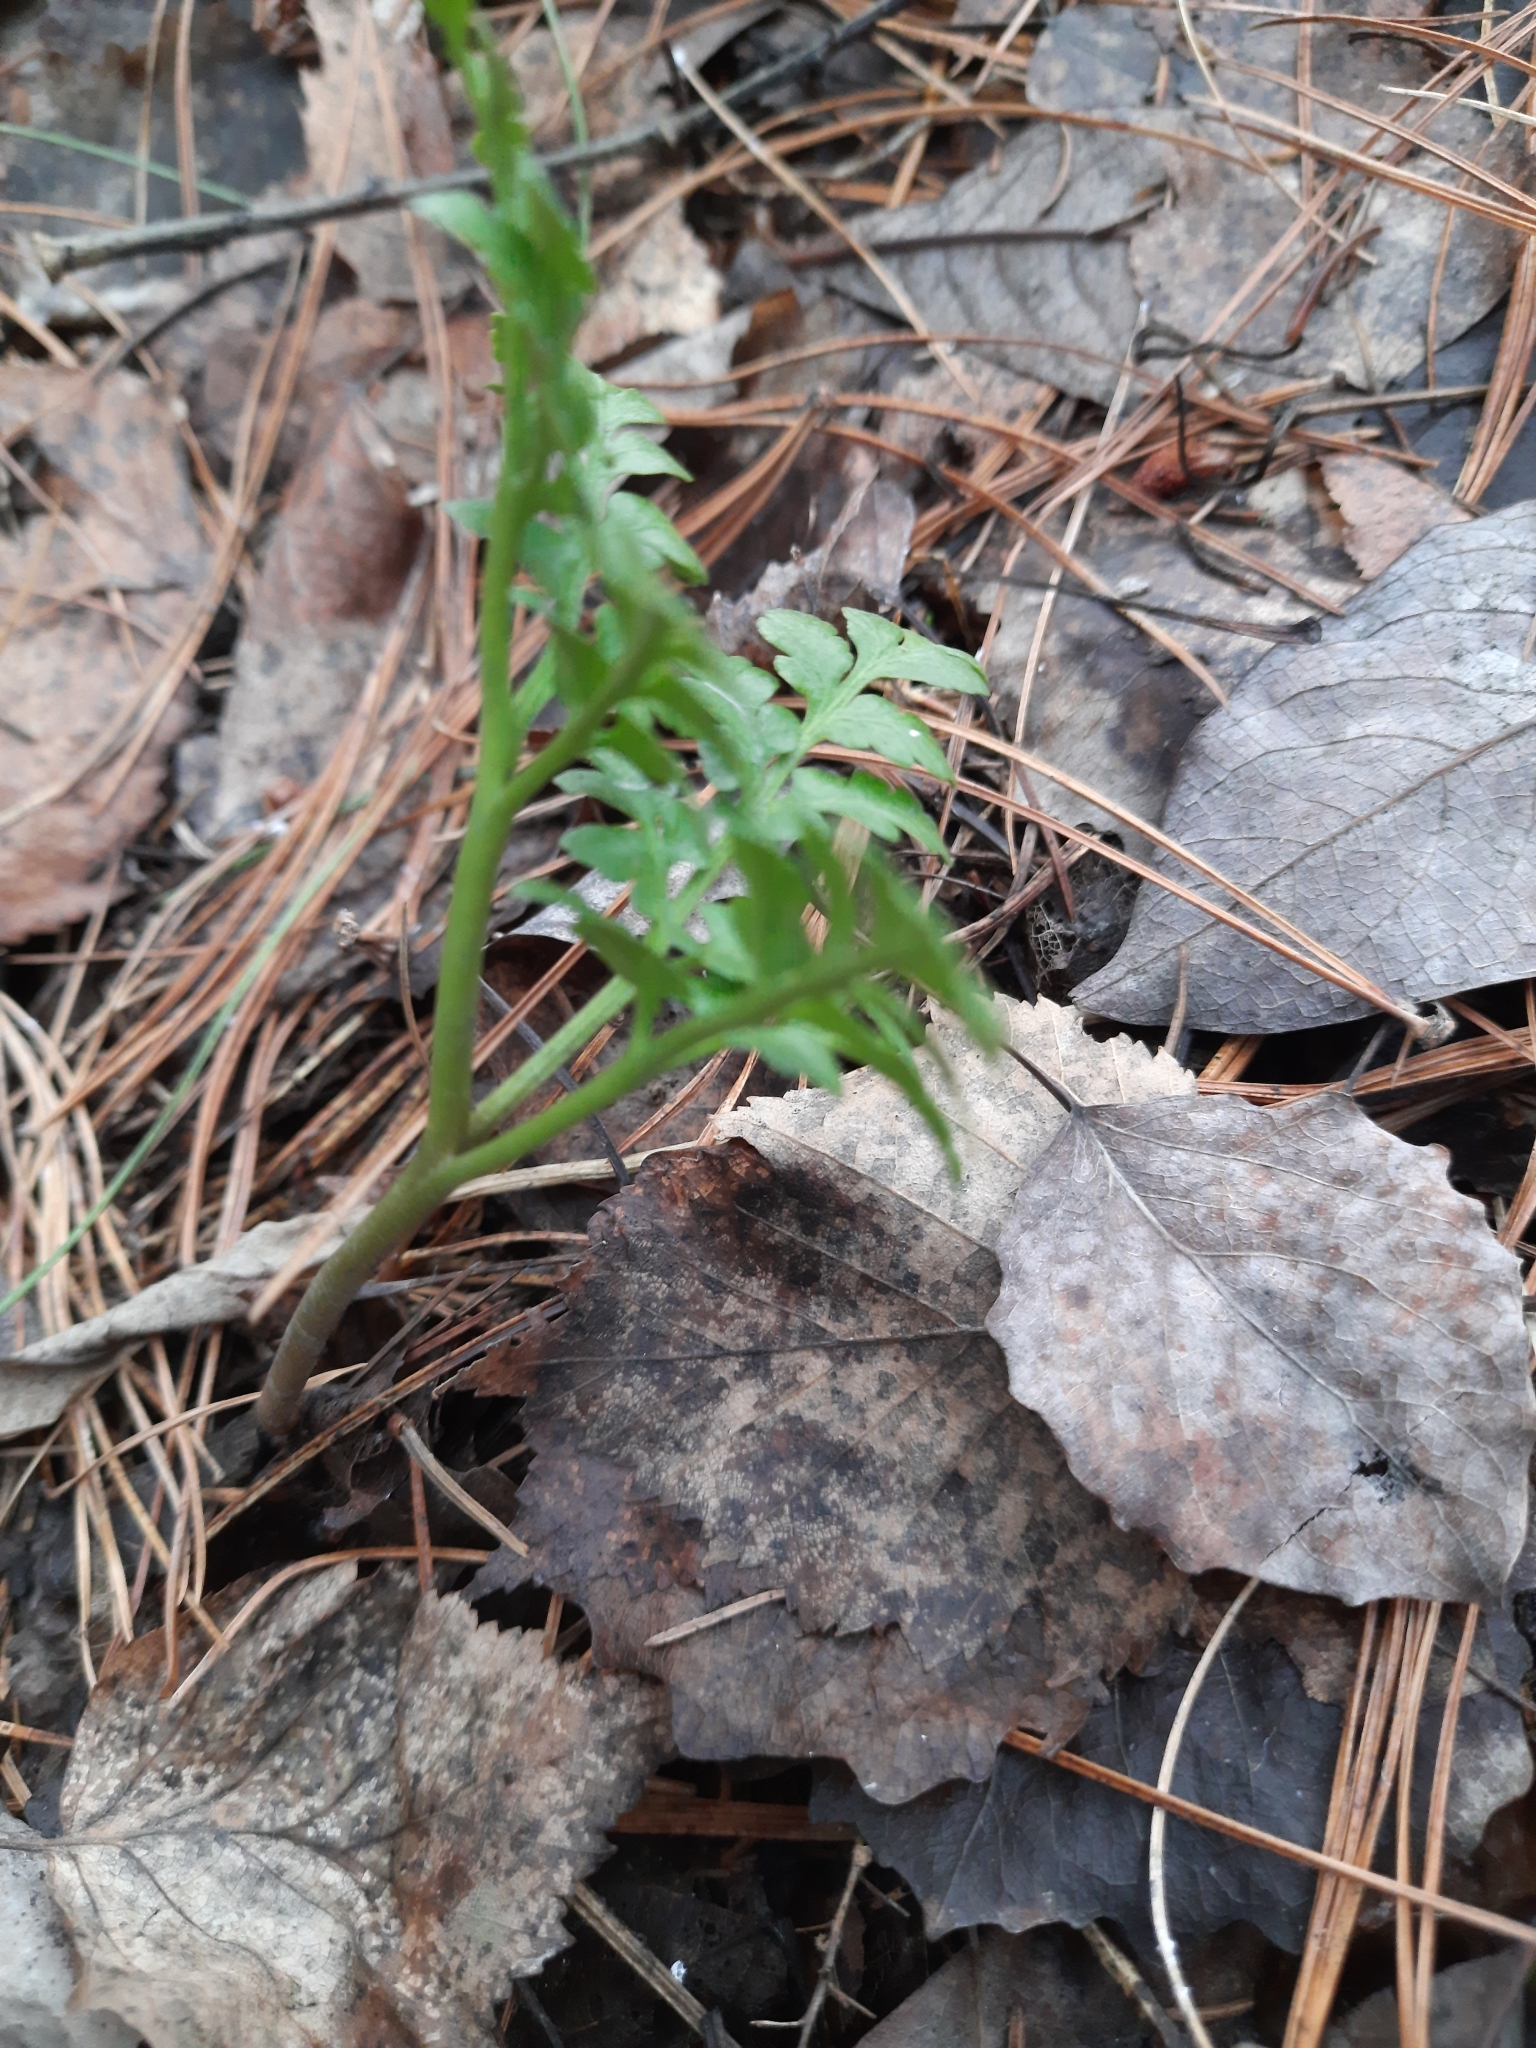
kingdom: Plantae
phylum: Tracheophyta
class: Polypodiopsida
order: Ophioglossales
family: Ophioglossaceae
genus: Sceptridium
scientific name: Sceptridium multifidum
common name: Leathery grape fern
